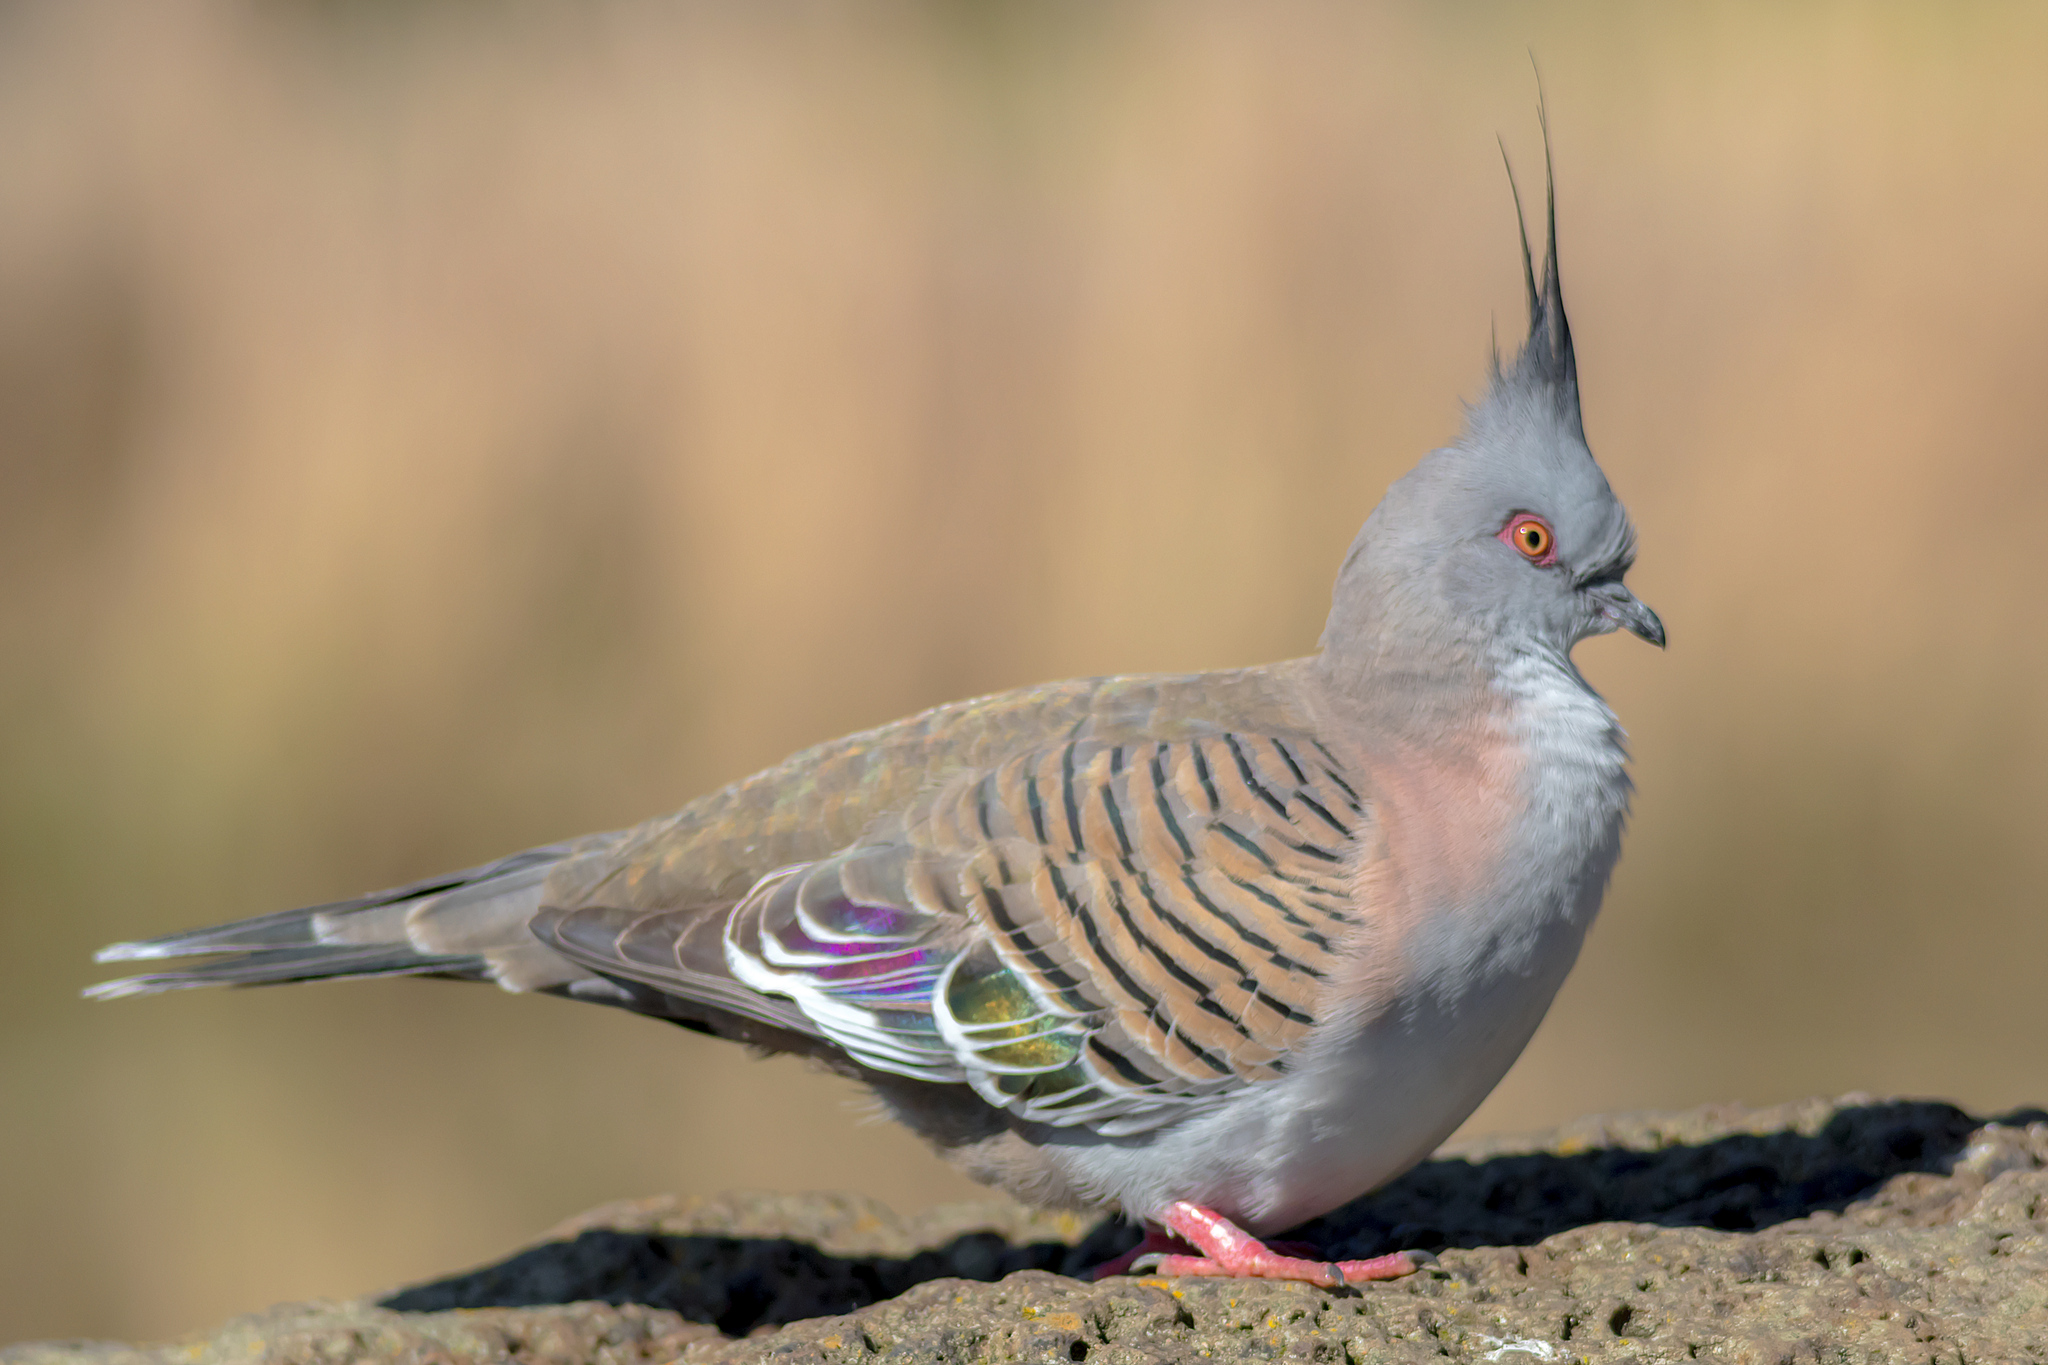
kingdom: Animalia
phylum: Chordata
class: Aves
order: Columbiformes
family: Columbidae
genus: Ocyphaps
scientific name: Ocyphaps lophotes
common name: Crested pigeon
